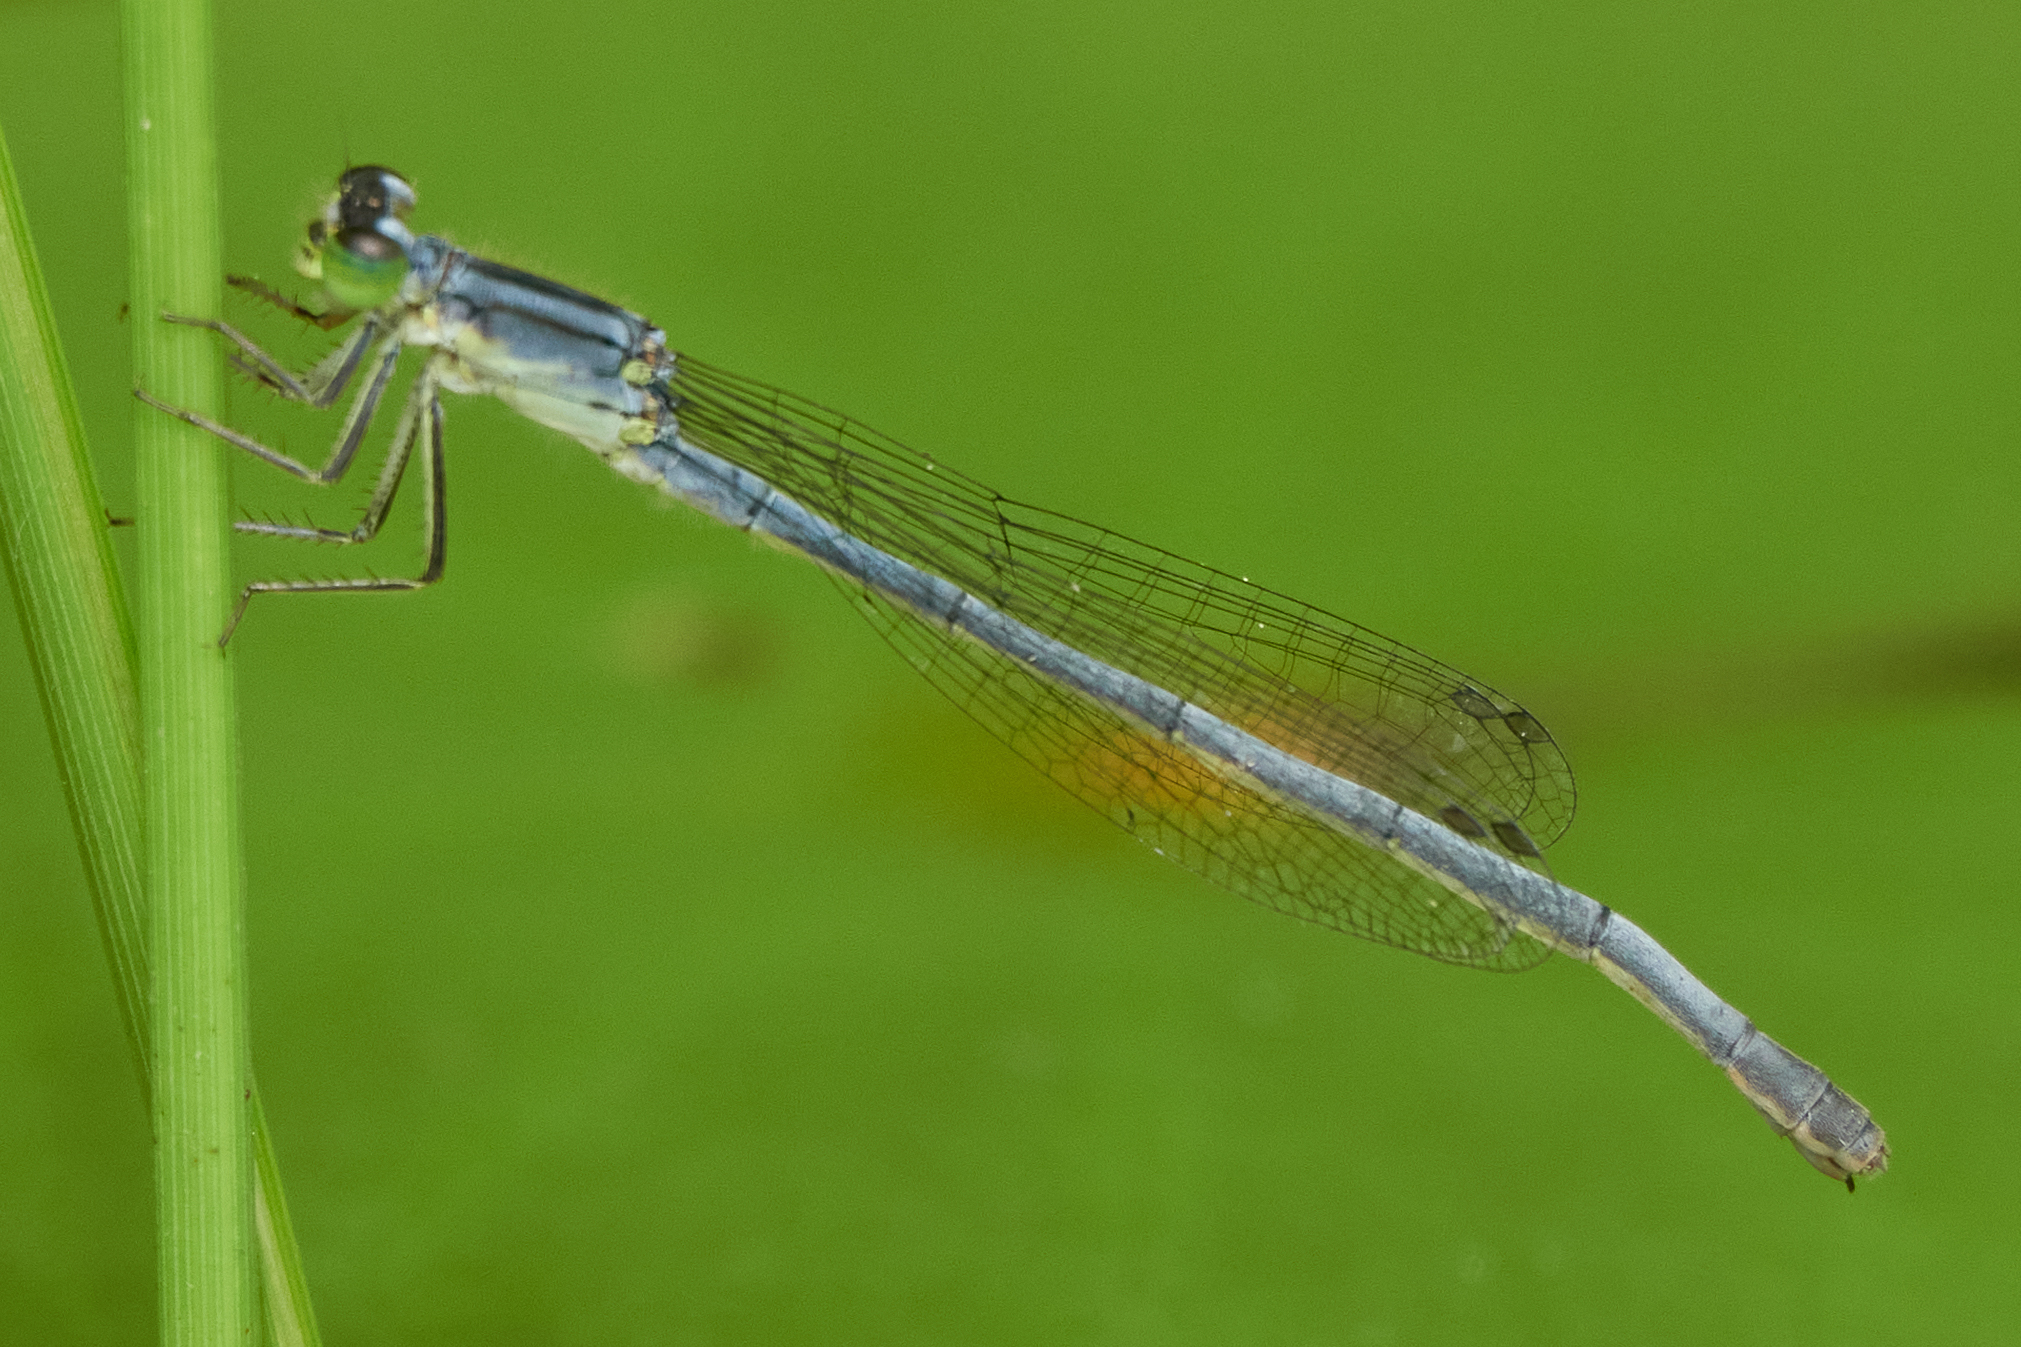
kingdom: Animalia
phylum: Arthropoda
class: Insecta
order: Odonata
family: Coenagrionidae
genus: Ischnura
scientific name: Ischnura verticalis
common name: Eastern forktail
